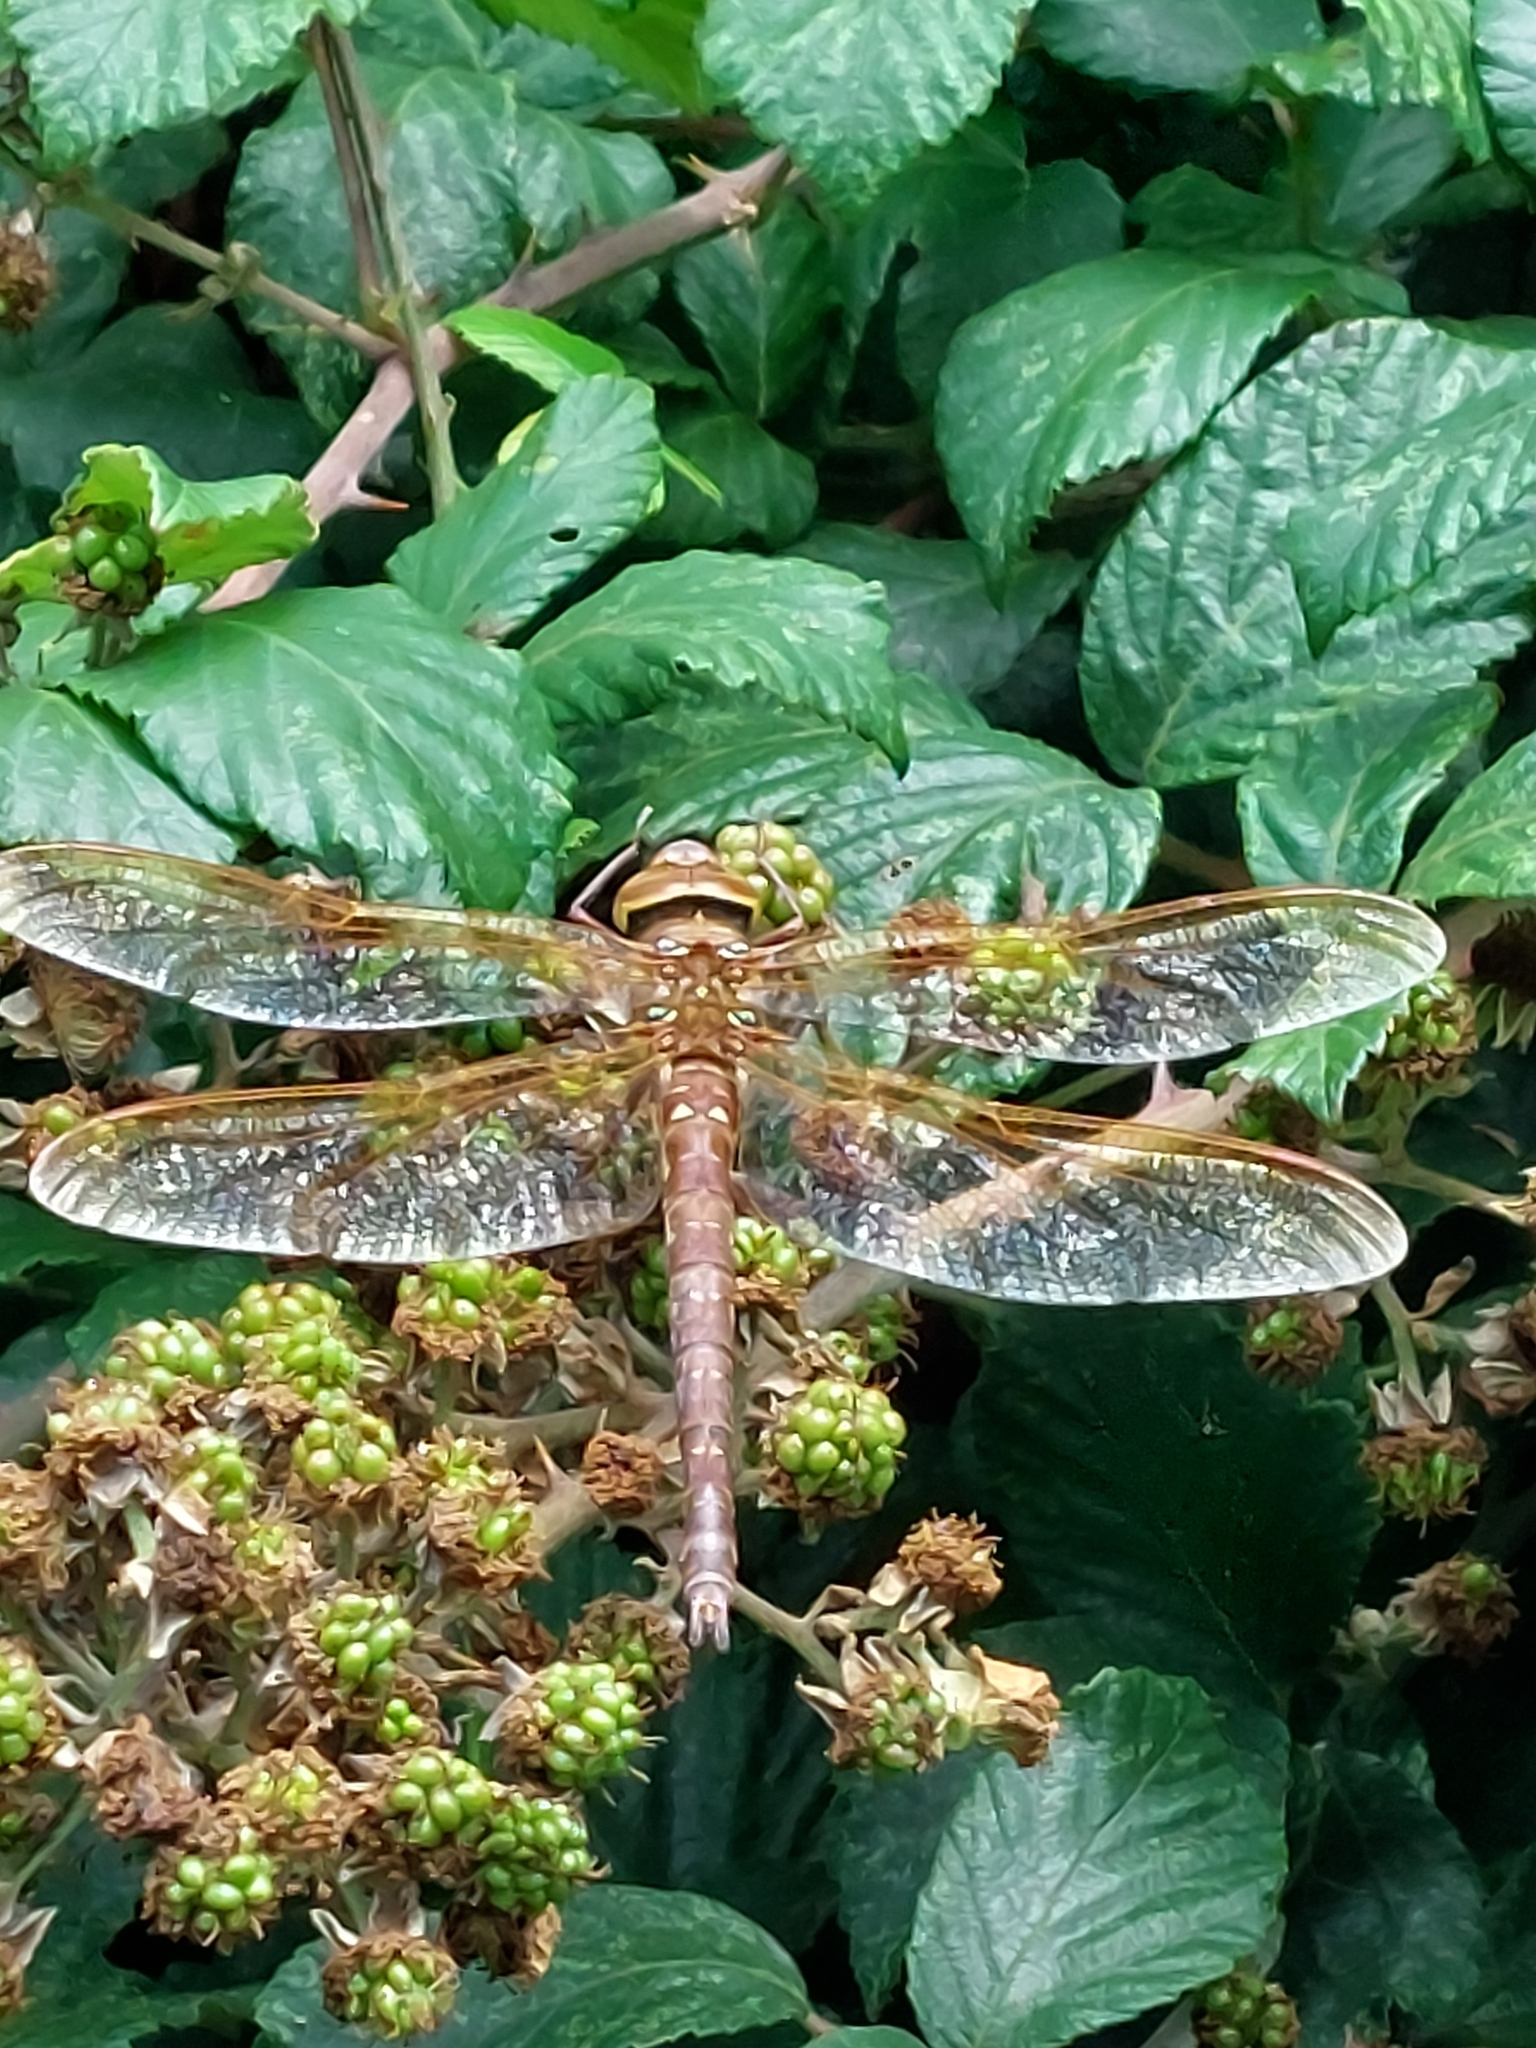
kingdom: Animalia
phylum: Arthropoda
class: Insecta
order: Odonata
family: Aeshnidae
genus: Aeshna
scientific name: Aeshna grandis
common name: Brown hawker
